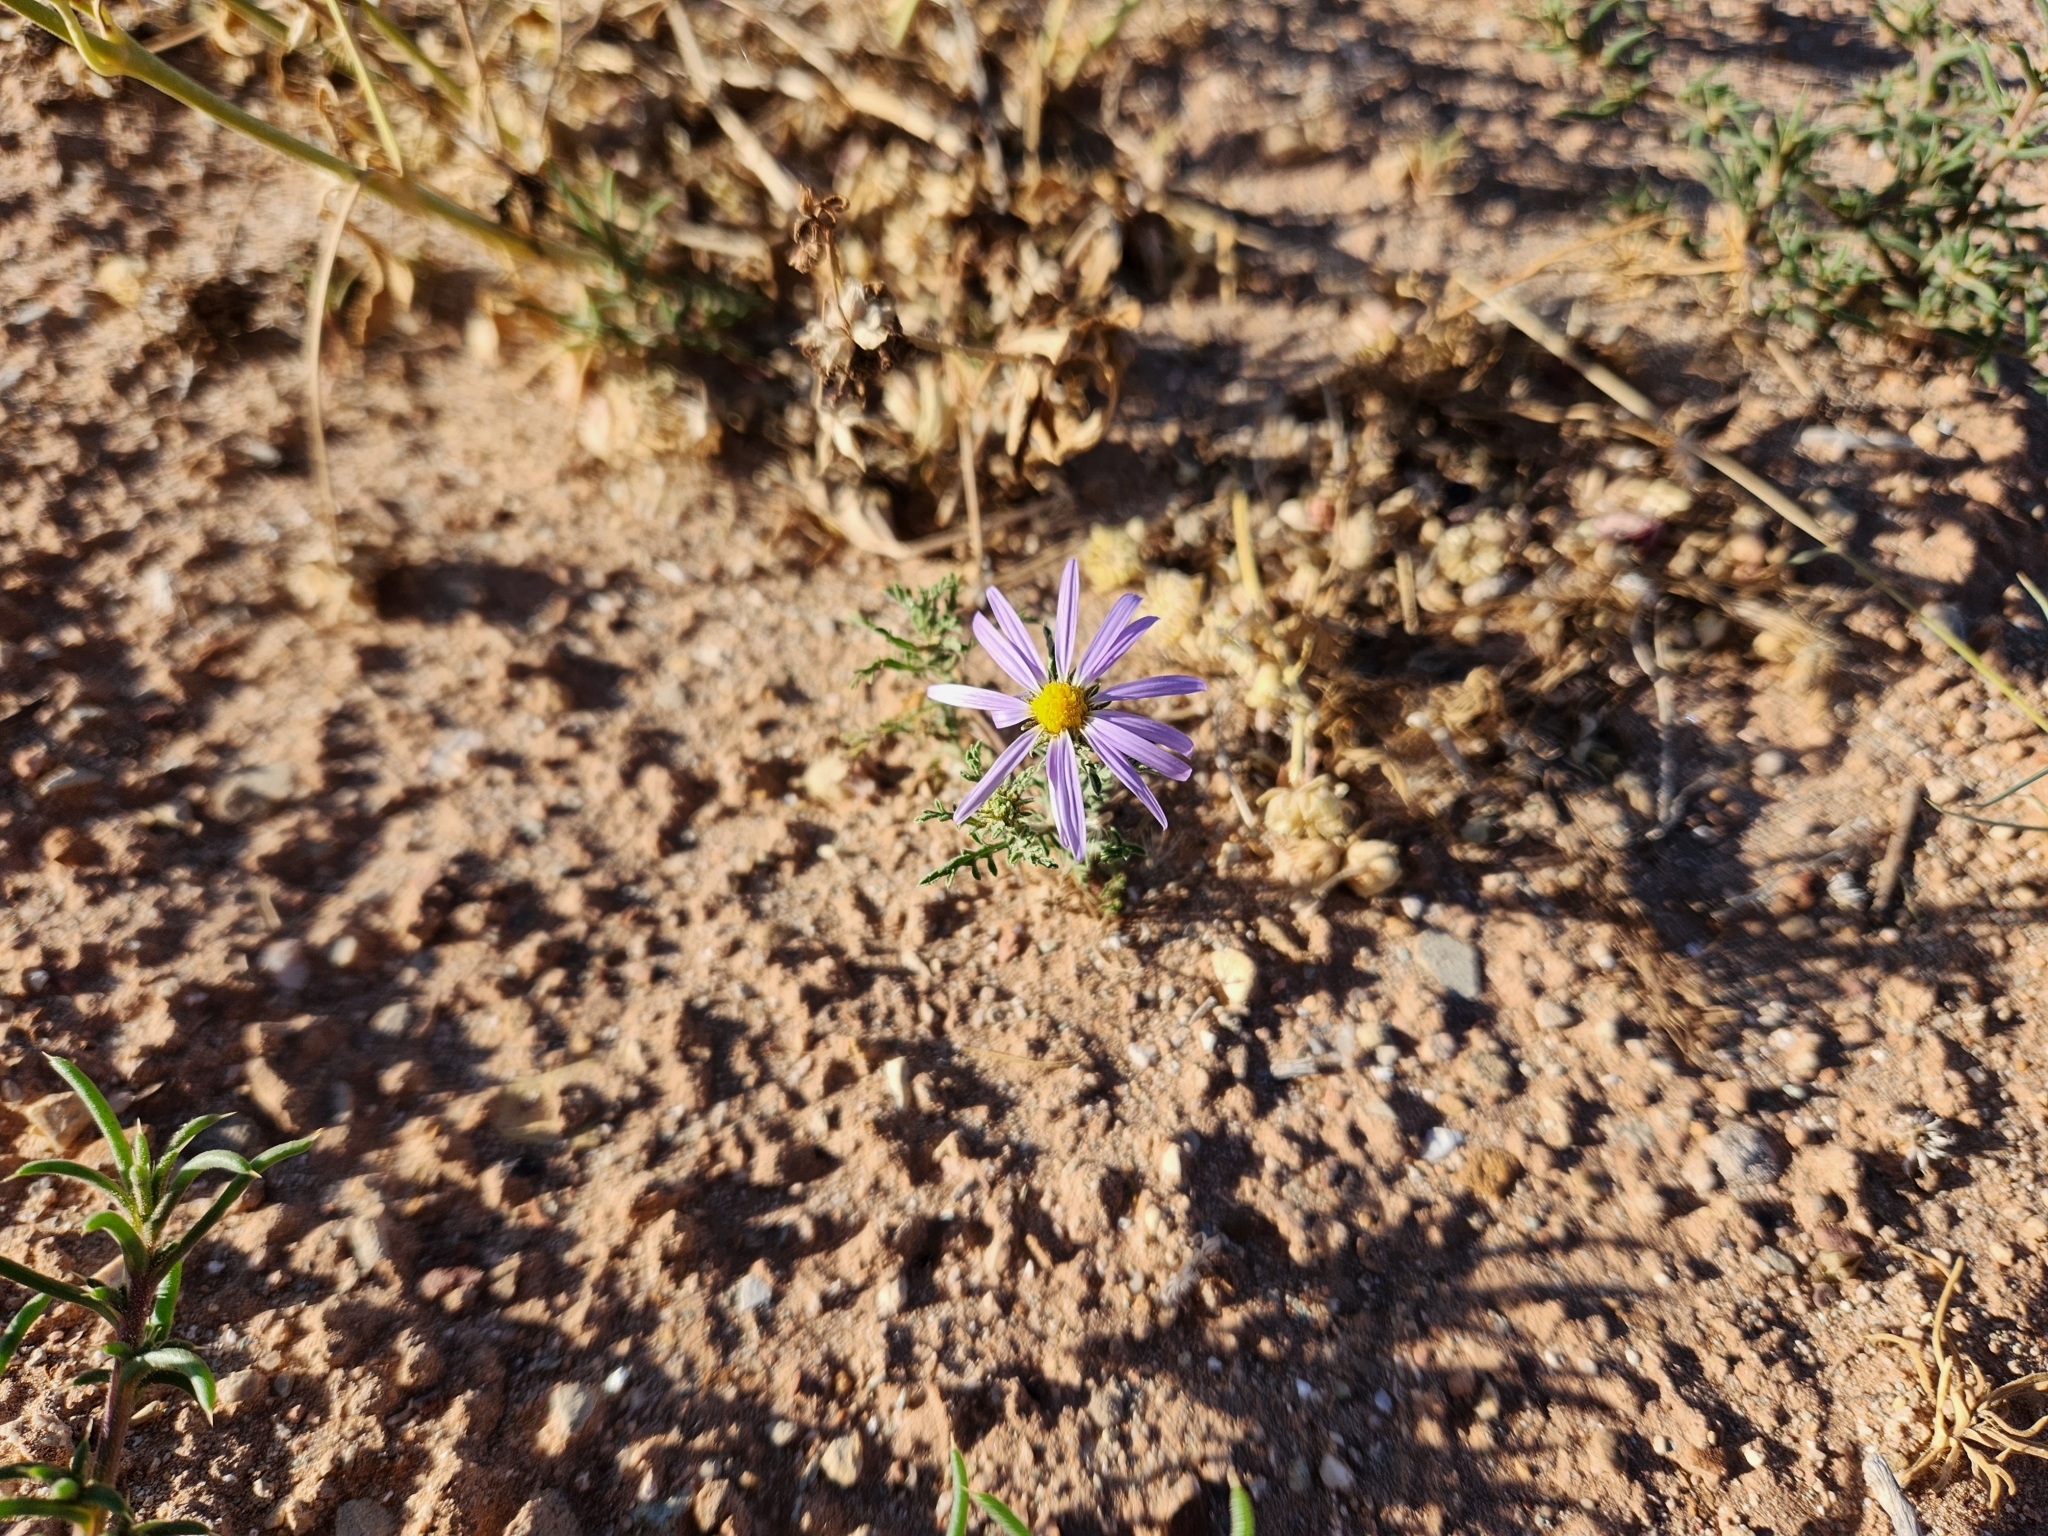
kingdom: Plantae
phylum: Tracheophyta
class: Magnoliopsida
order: Asterales
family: Asteraceae
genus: Machaeranthera
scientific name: Machaeranthera tanacetifolia
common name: Tansy-aster
